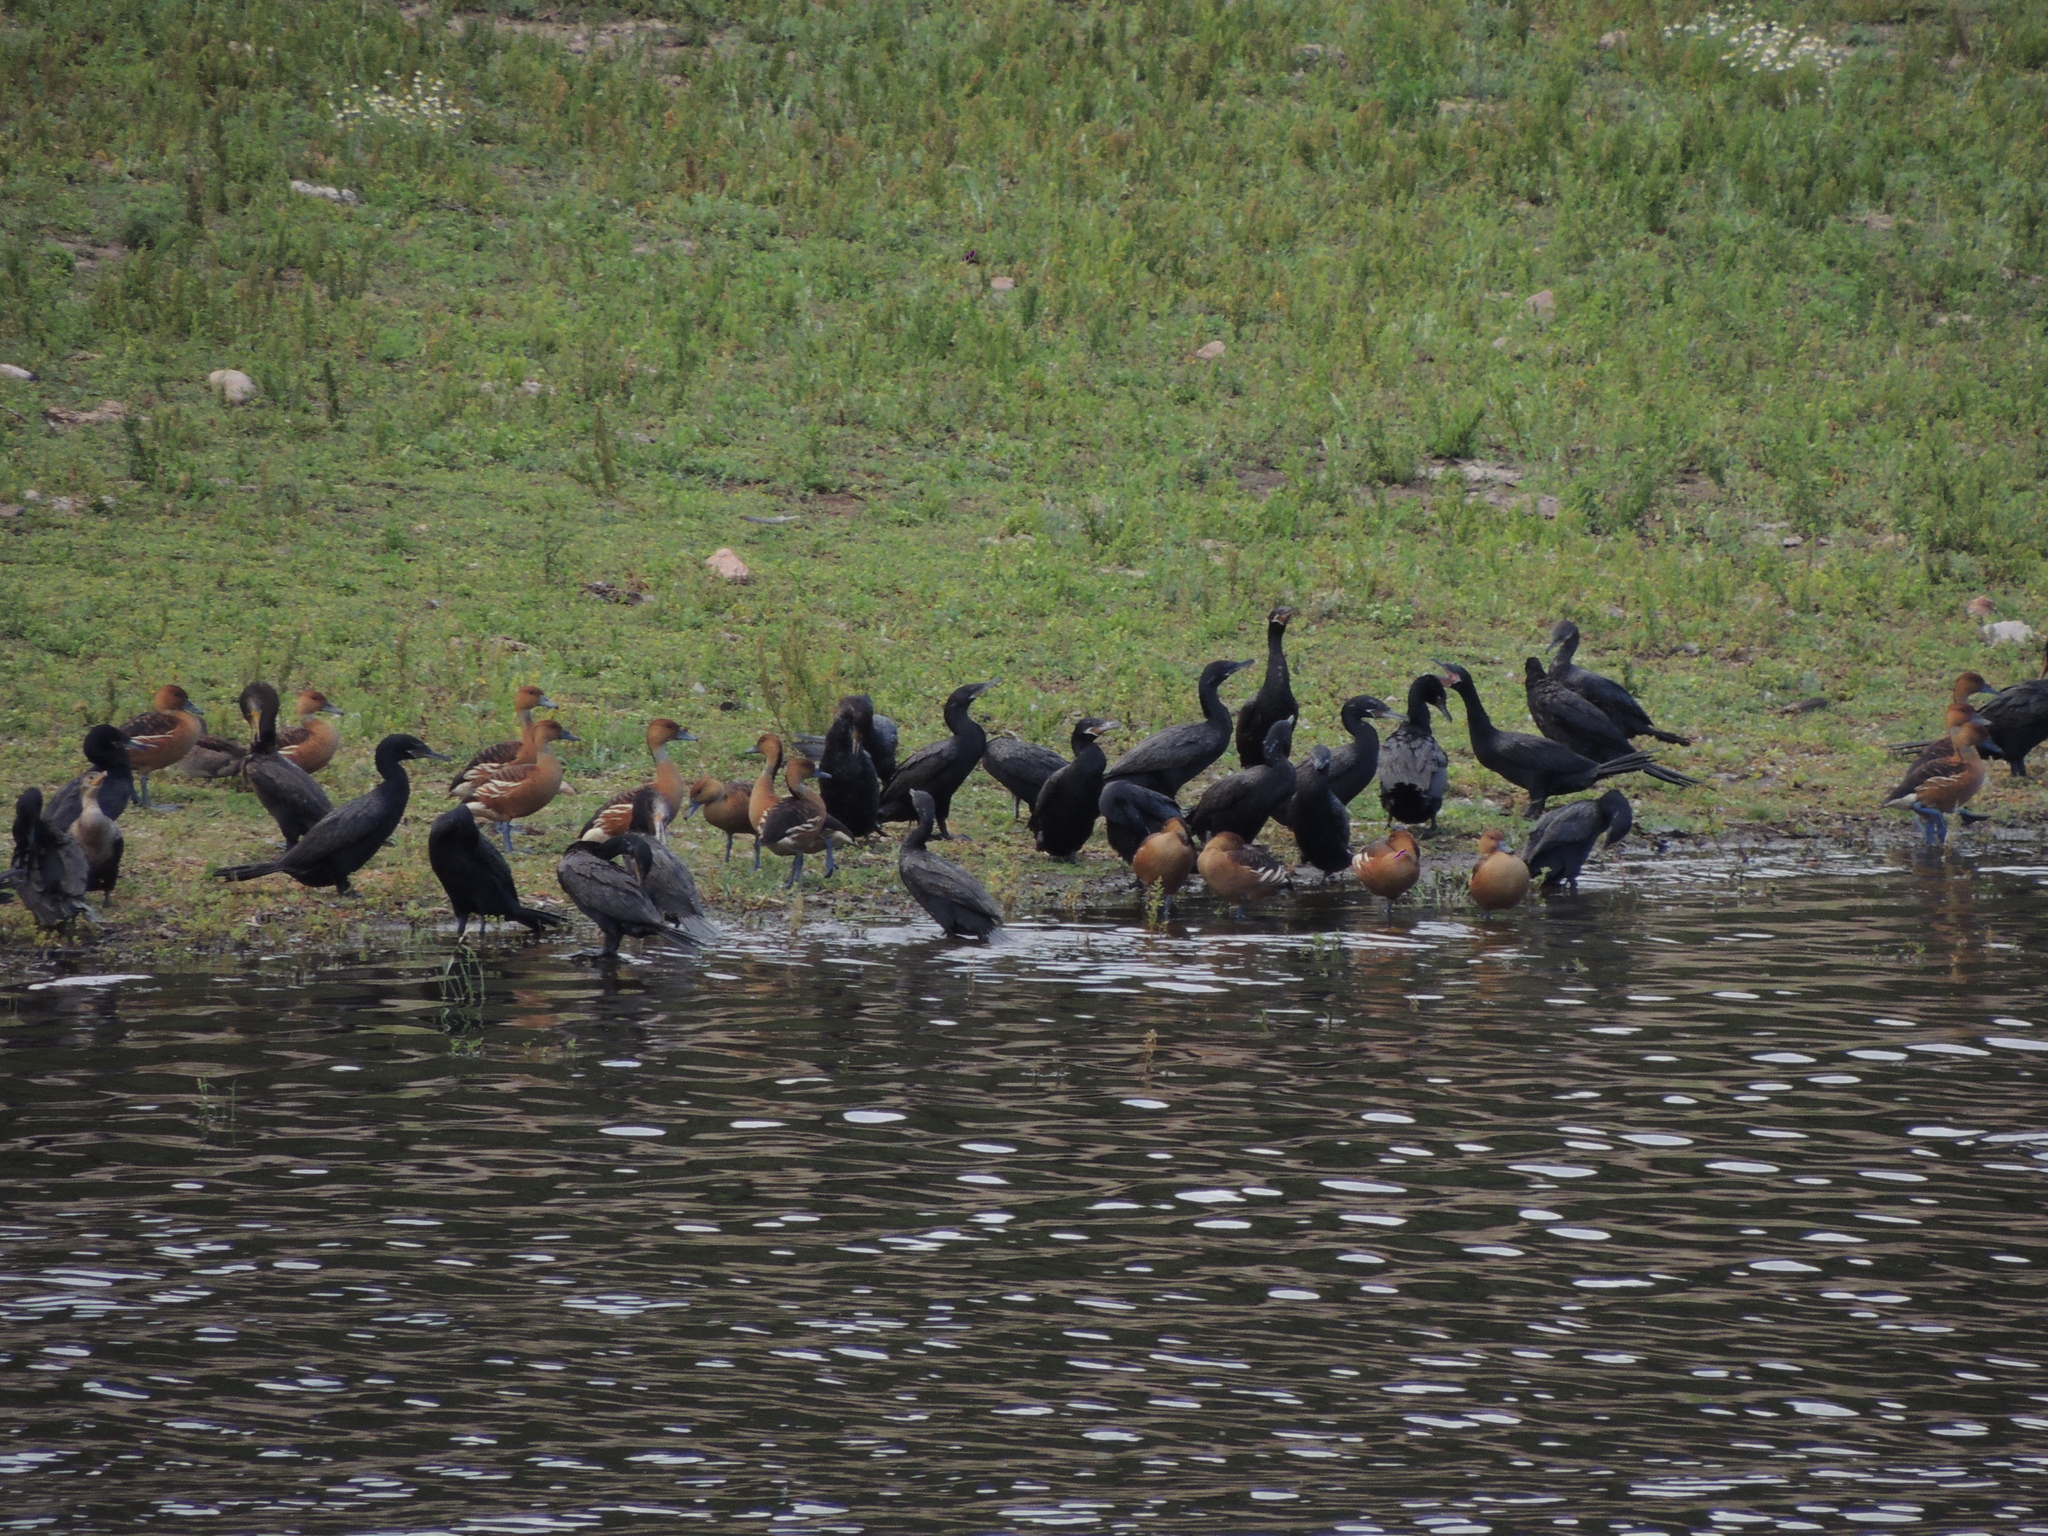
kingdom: Animalia
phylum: Chordata
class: Aves
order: Suliformes
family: Phalacrocoracidae
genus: Phalacrocorax
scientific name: Phalacrocorax brasilianus
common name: Neotropic cormorant
